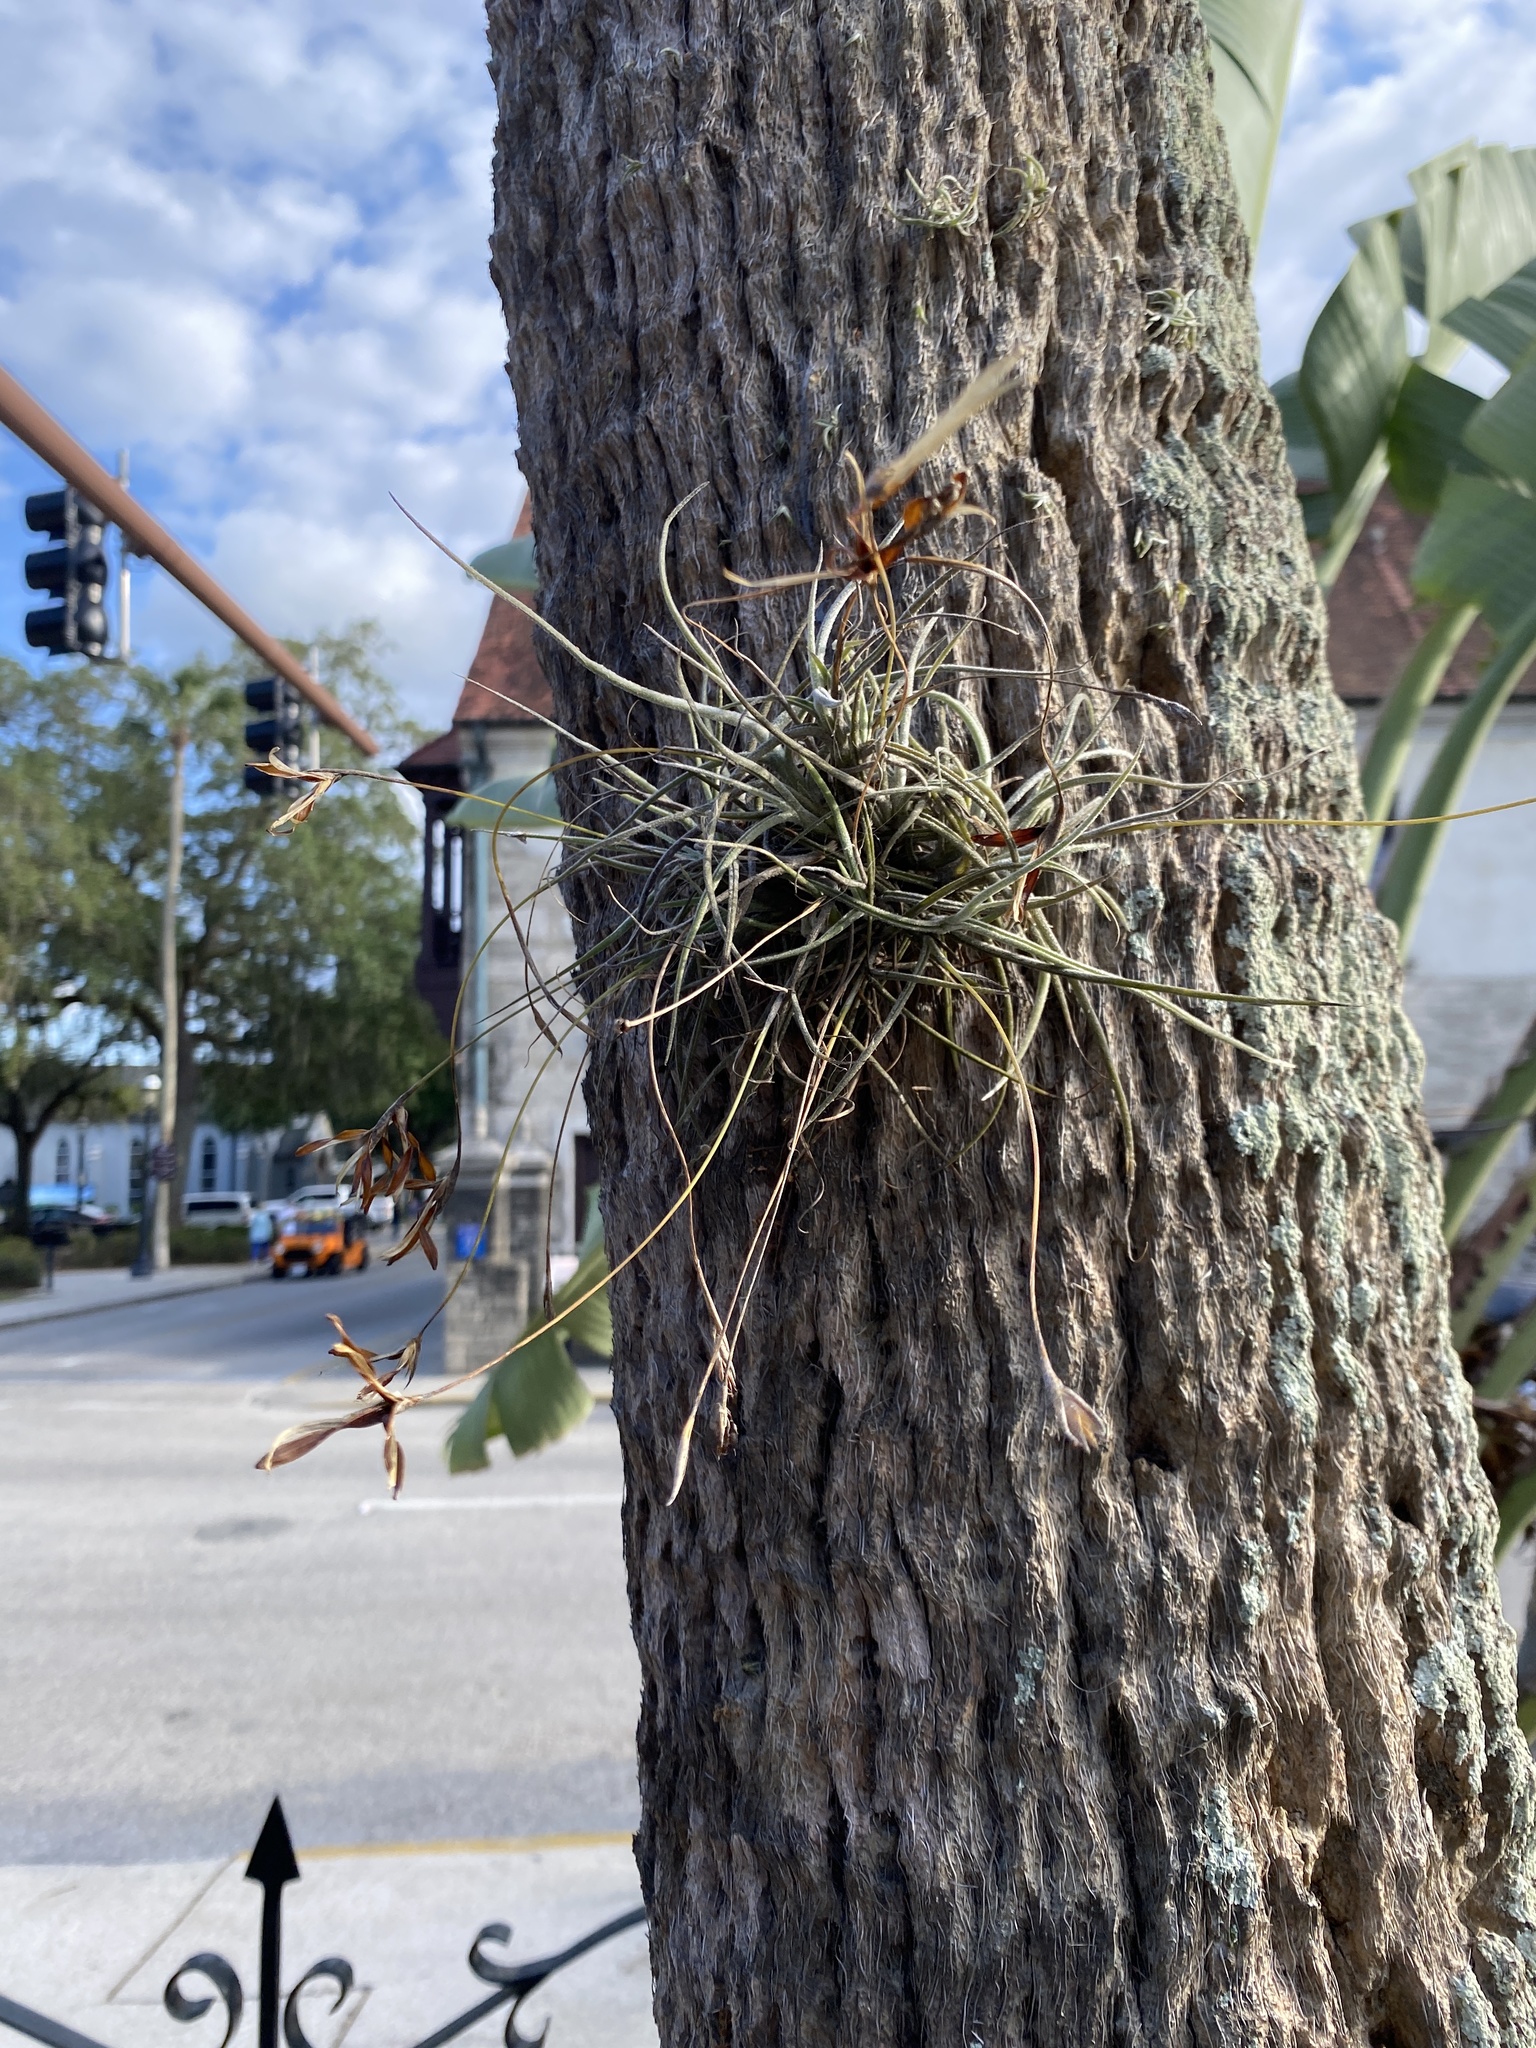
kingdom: Plantae
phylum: Tracheophyta
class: Liliopsida
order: Poales
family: Bromeliaceae
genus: Tillandsia
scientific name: Tillandsia recurvata
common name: Small ballmoss
